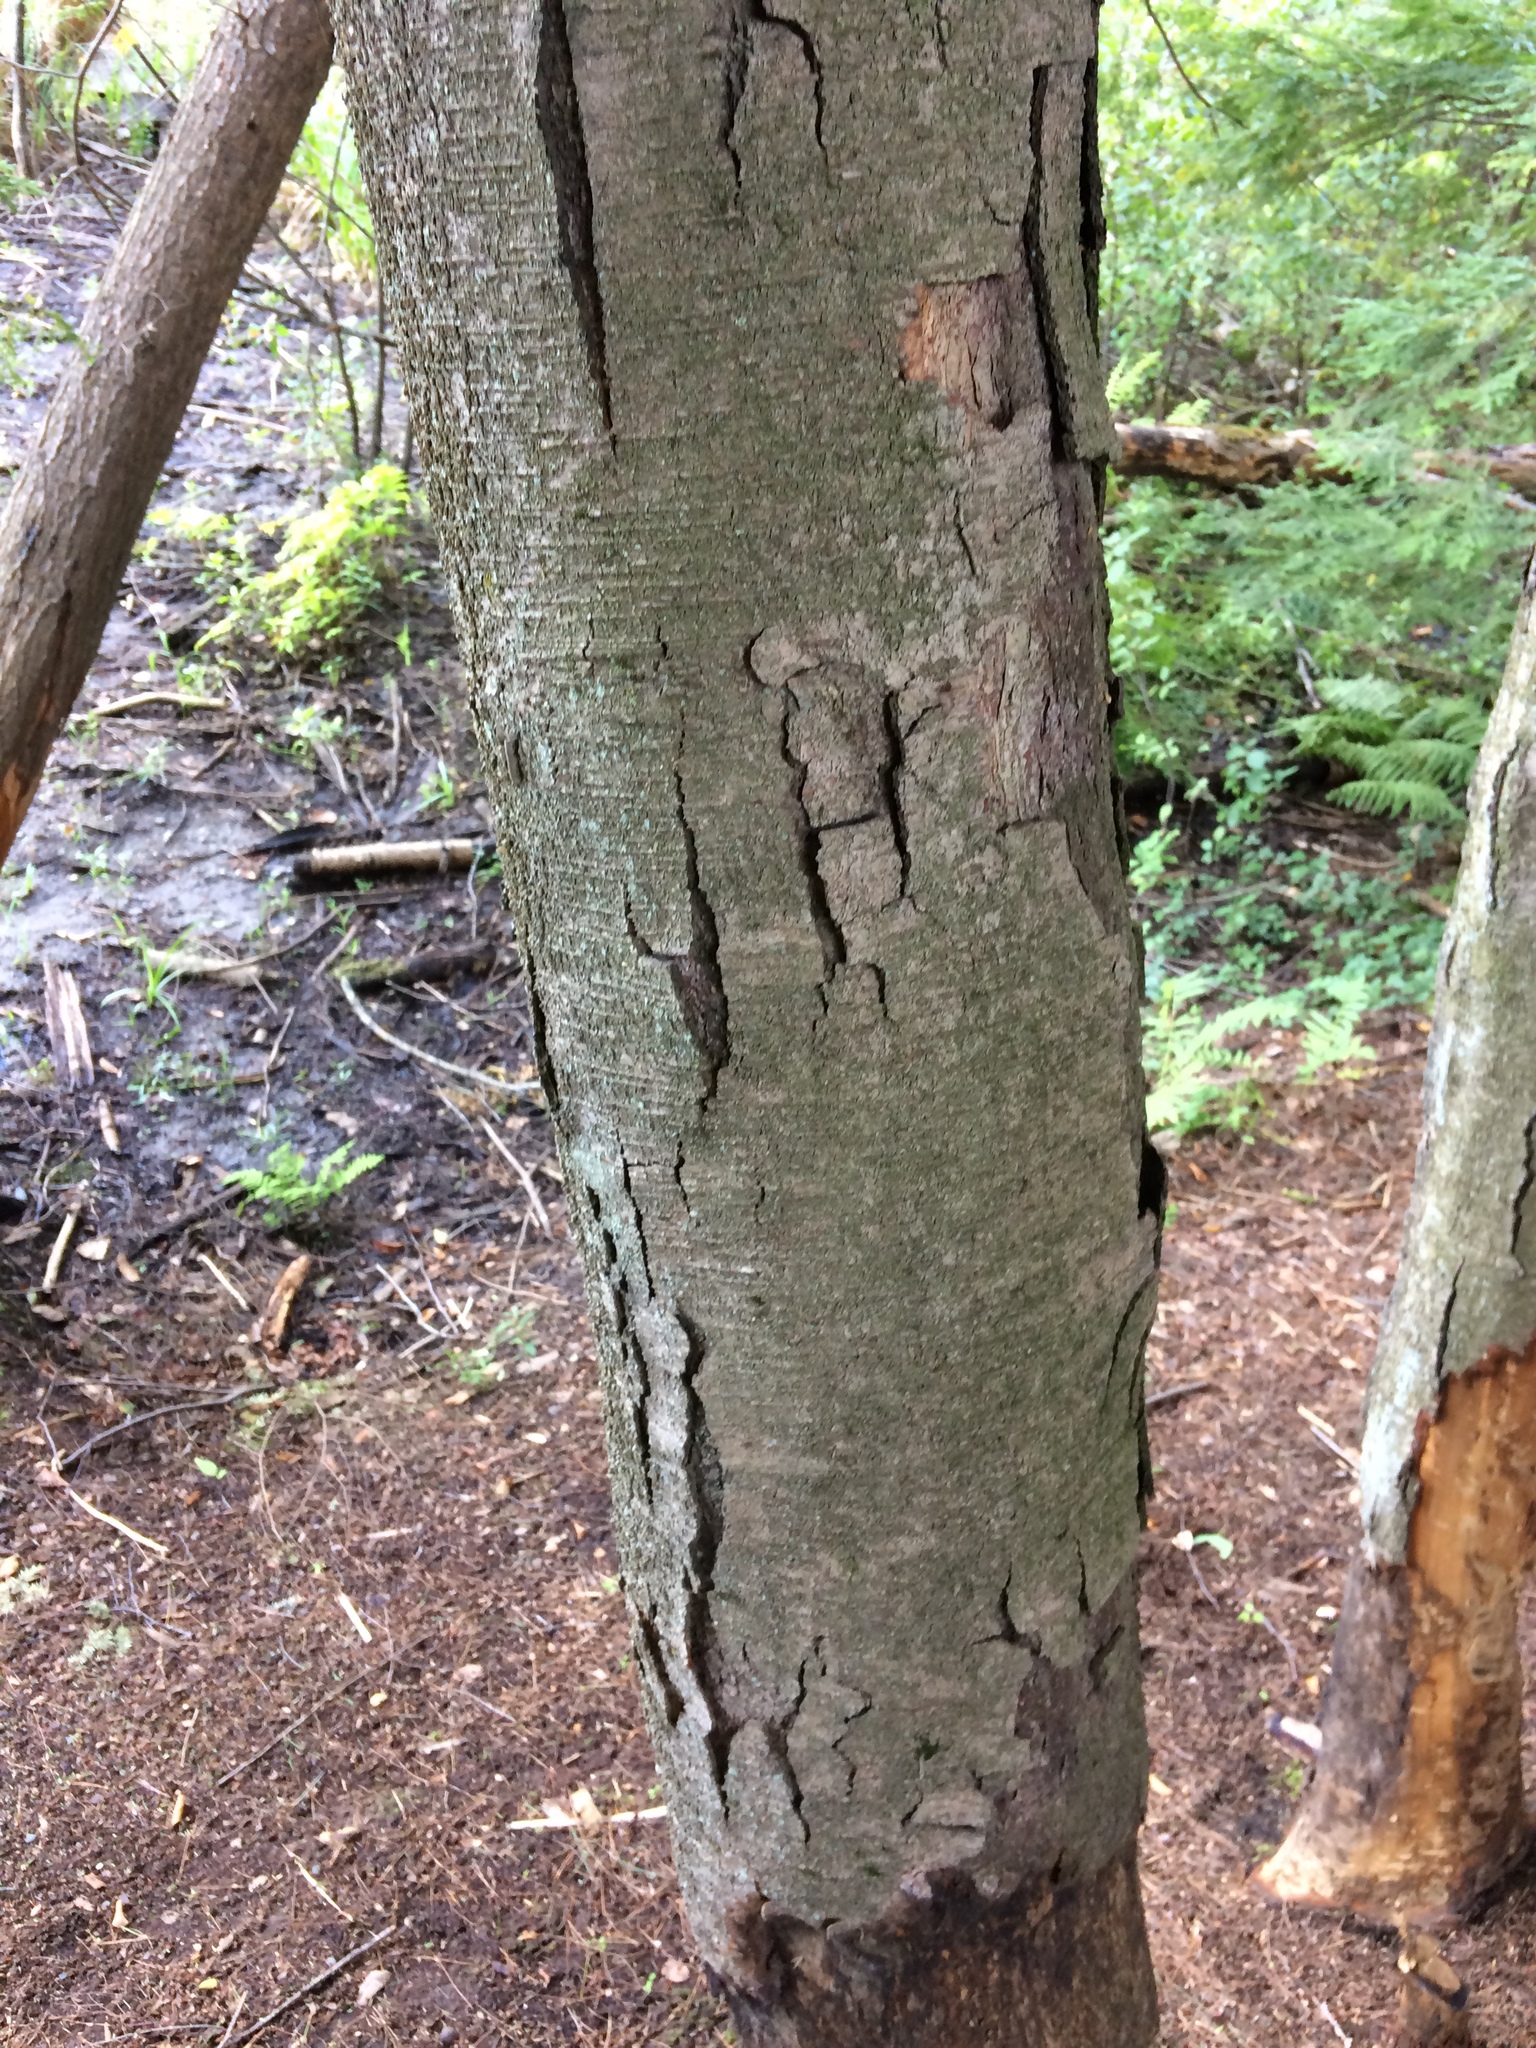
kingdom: Plantae
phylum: Tracheophyta
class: Magnoliopsida
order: Fagales
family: Betulaceae
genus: Betula
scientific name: Betula lenta
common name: Black birch
